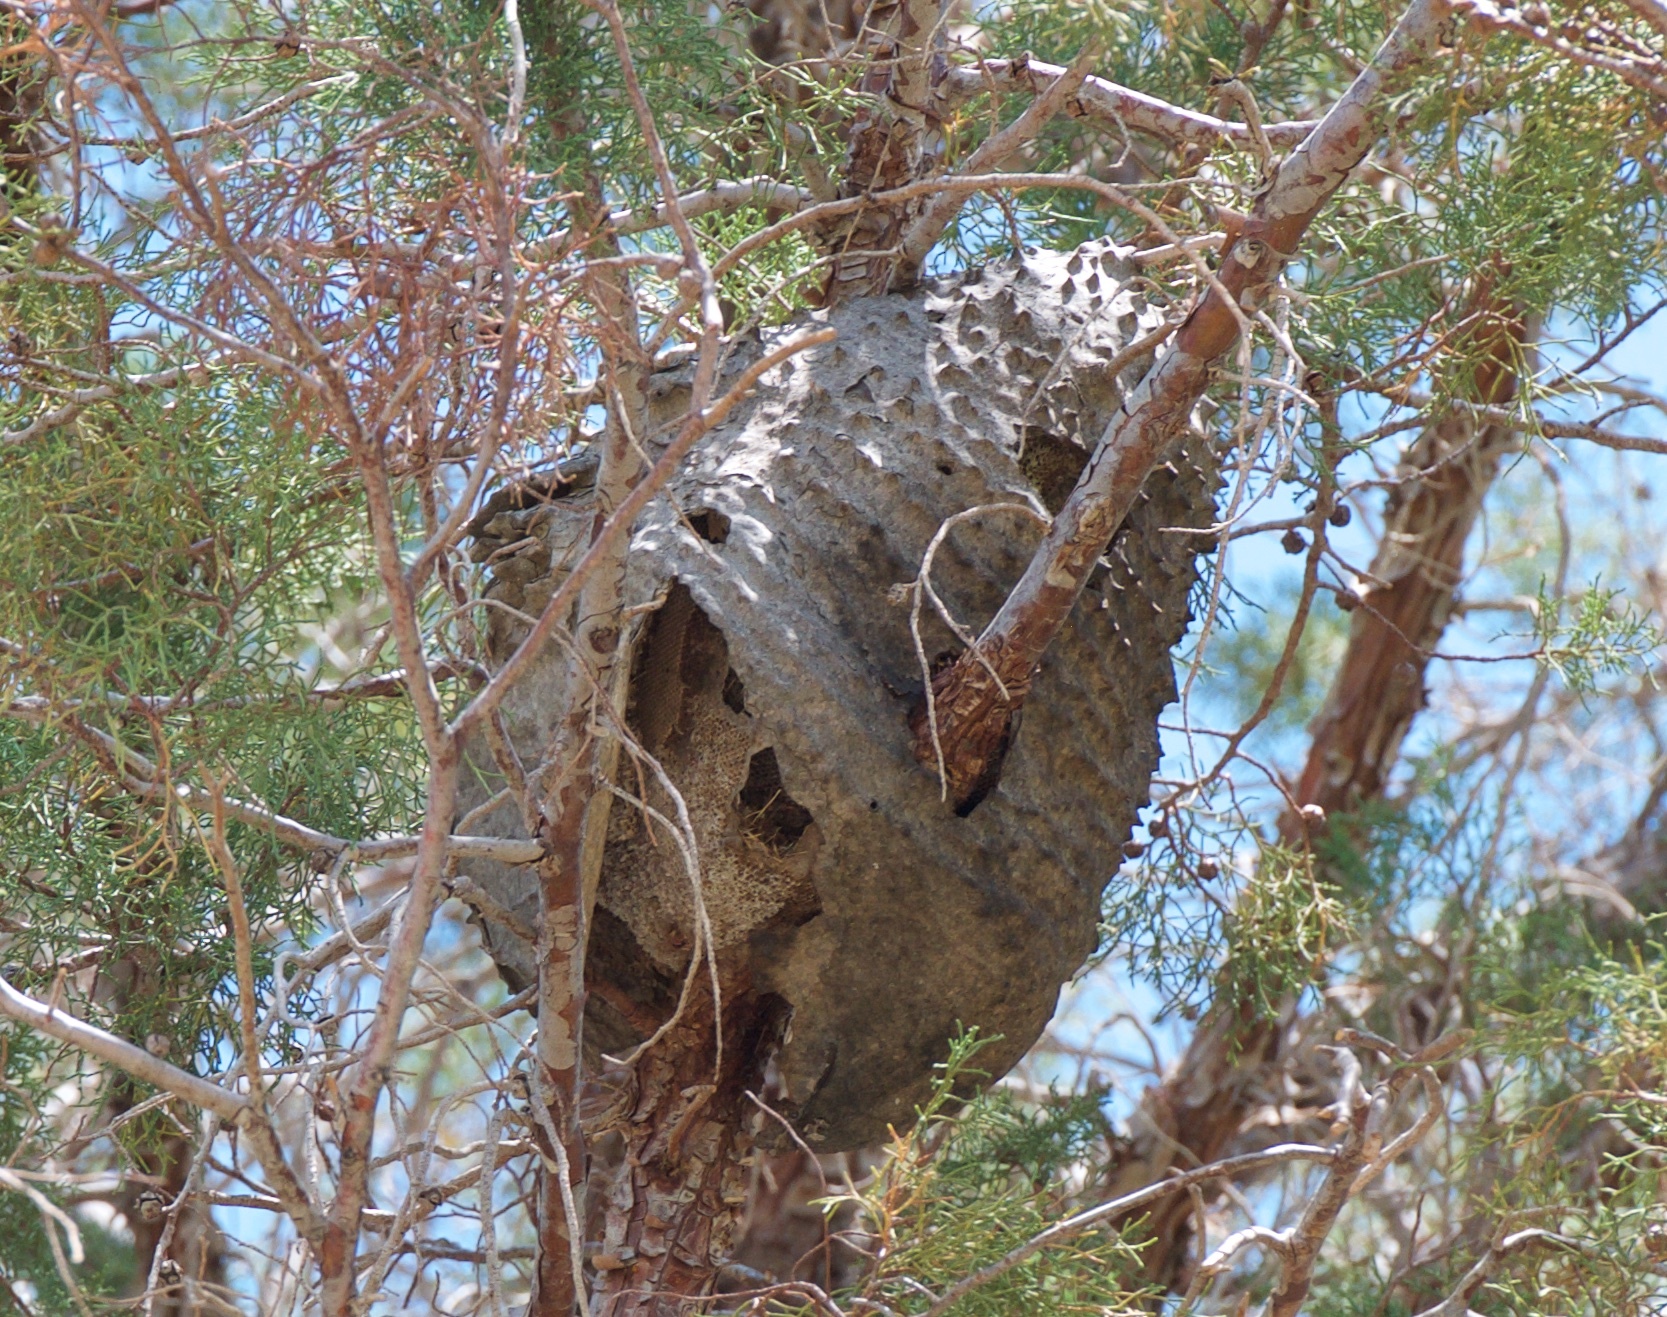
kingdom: Animalia
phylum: Arthropoda
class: Insecta
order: Hymenoptera
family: Eumenidae
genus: Polybia
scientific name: Polybia scutellaris
